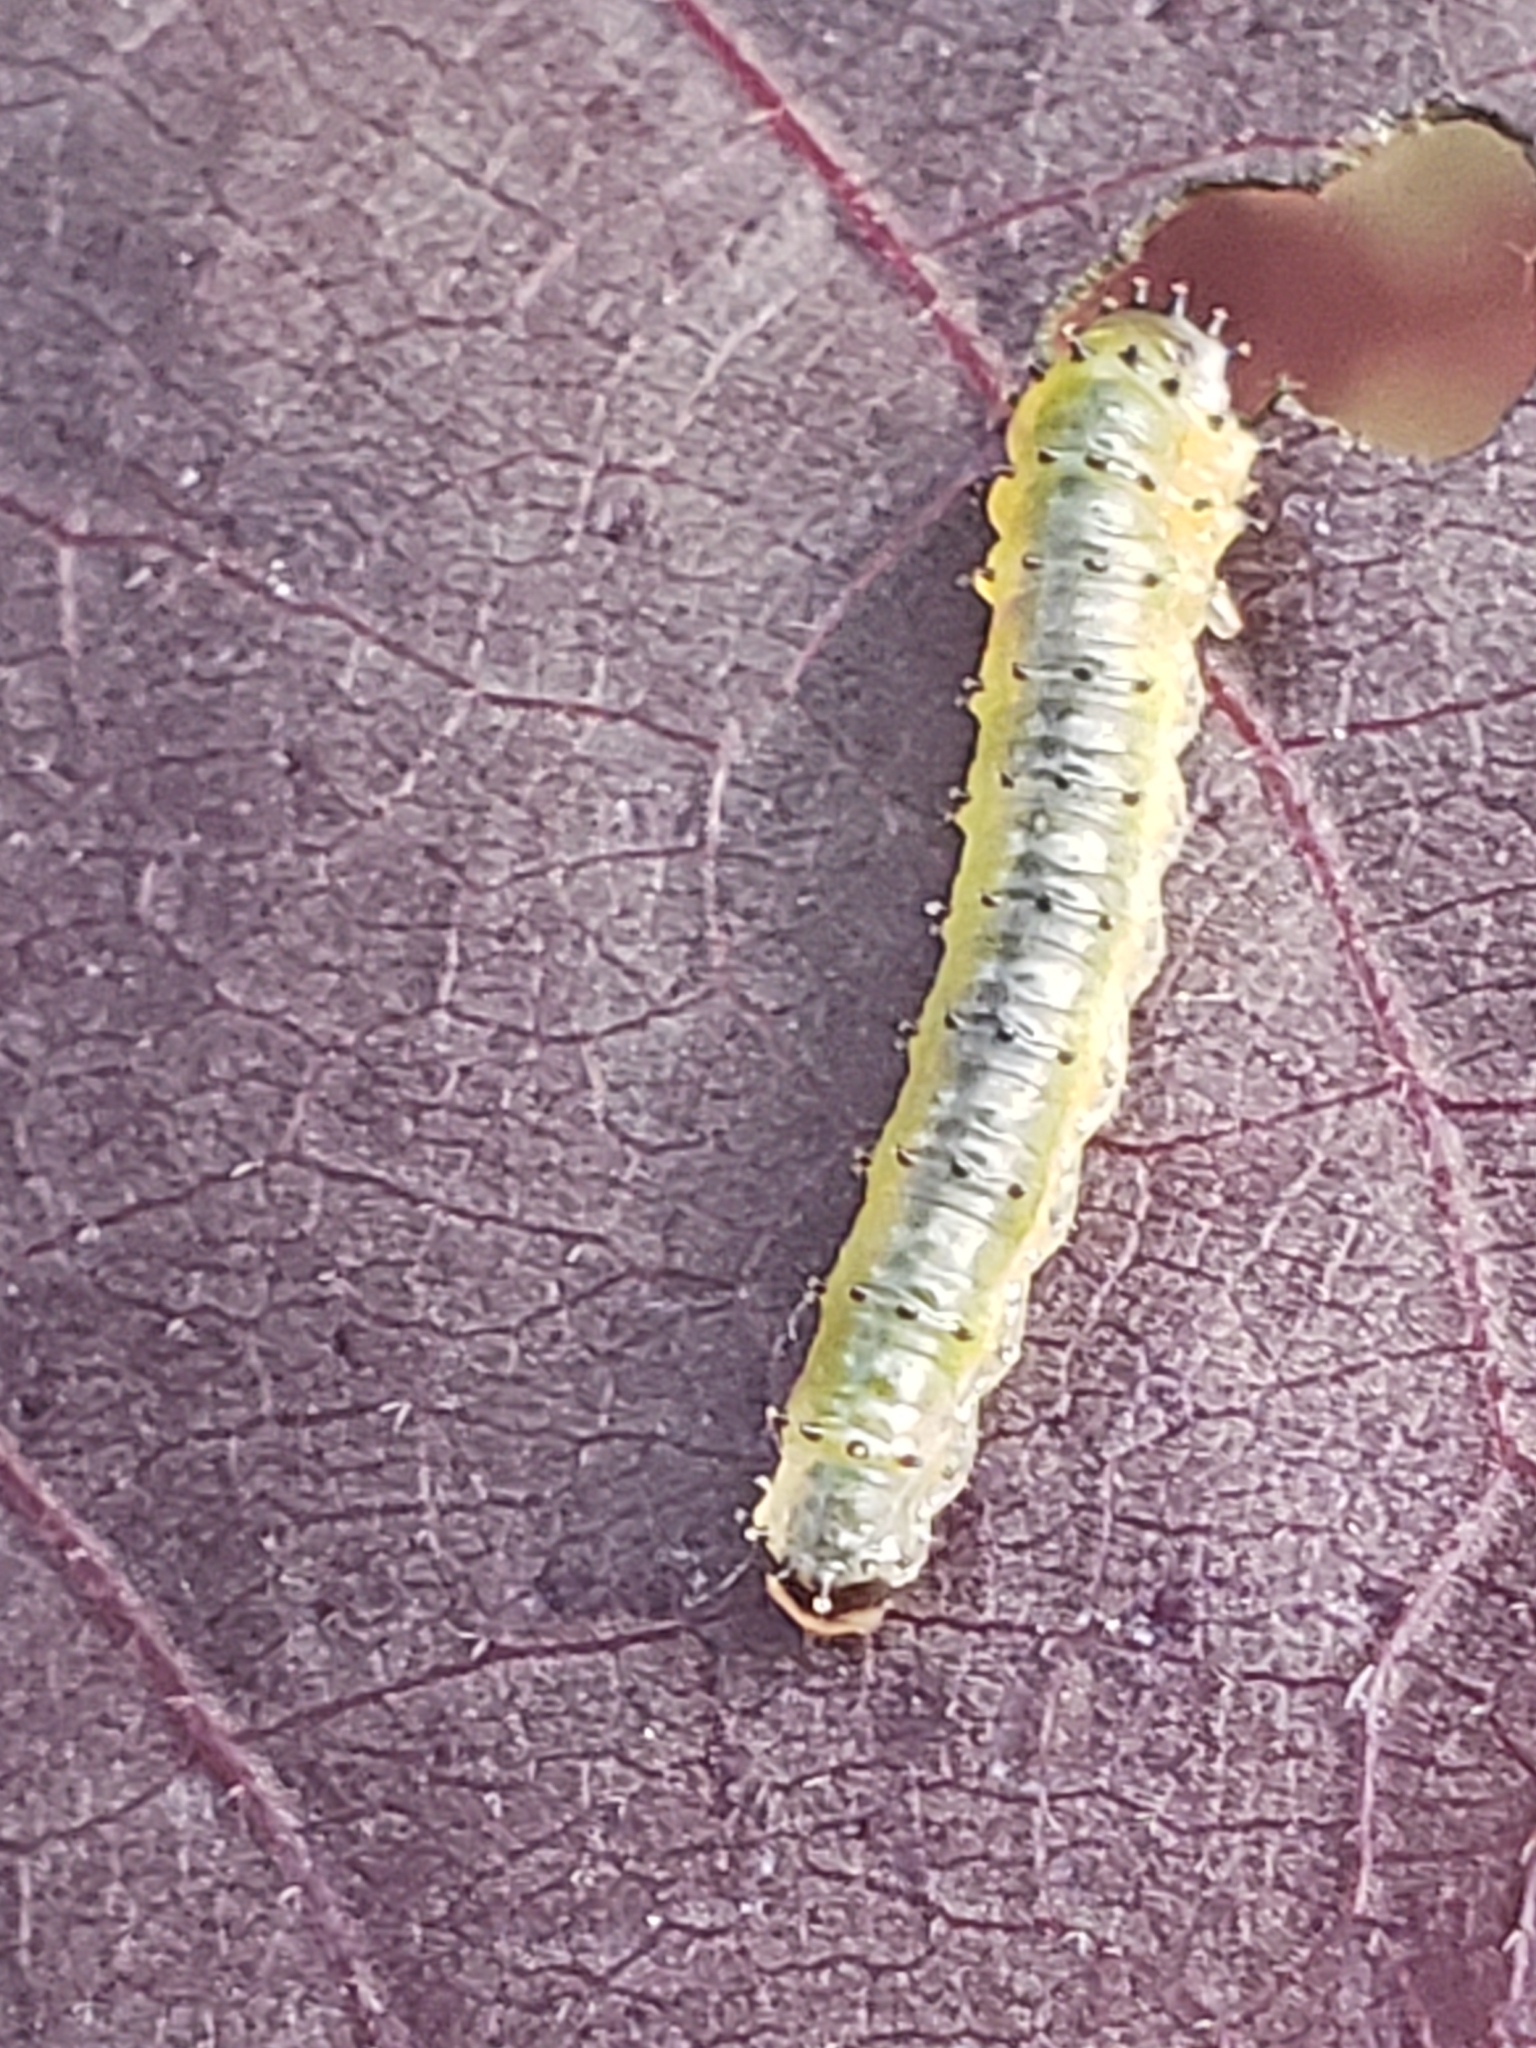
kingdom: Animalia
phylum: Arthropoda
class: Insecta
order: Hymenoptera
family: Argidae
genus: Atomacera
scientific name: Atomacera
